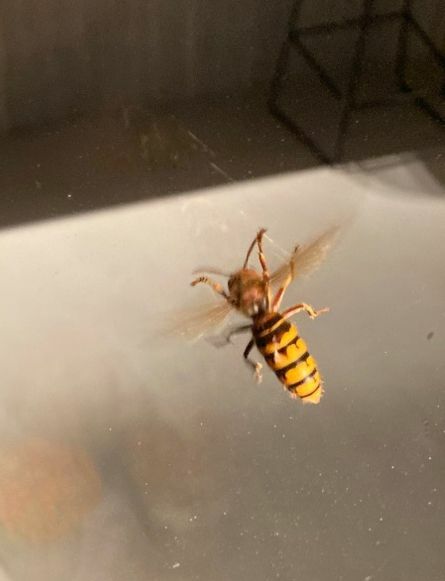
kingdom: Animalia
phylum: Arthropoda
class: Insecta
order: Hymenoptera
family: Vespidae
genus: Vespa
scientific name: Vespa crabro
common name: Hornet
